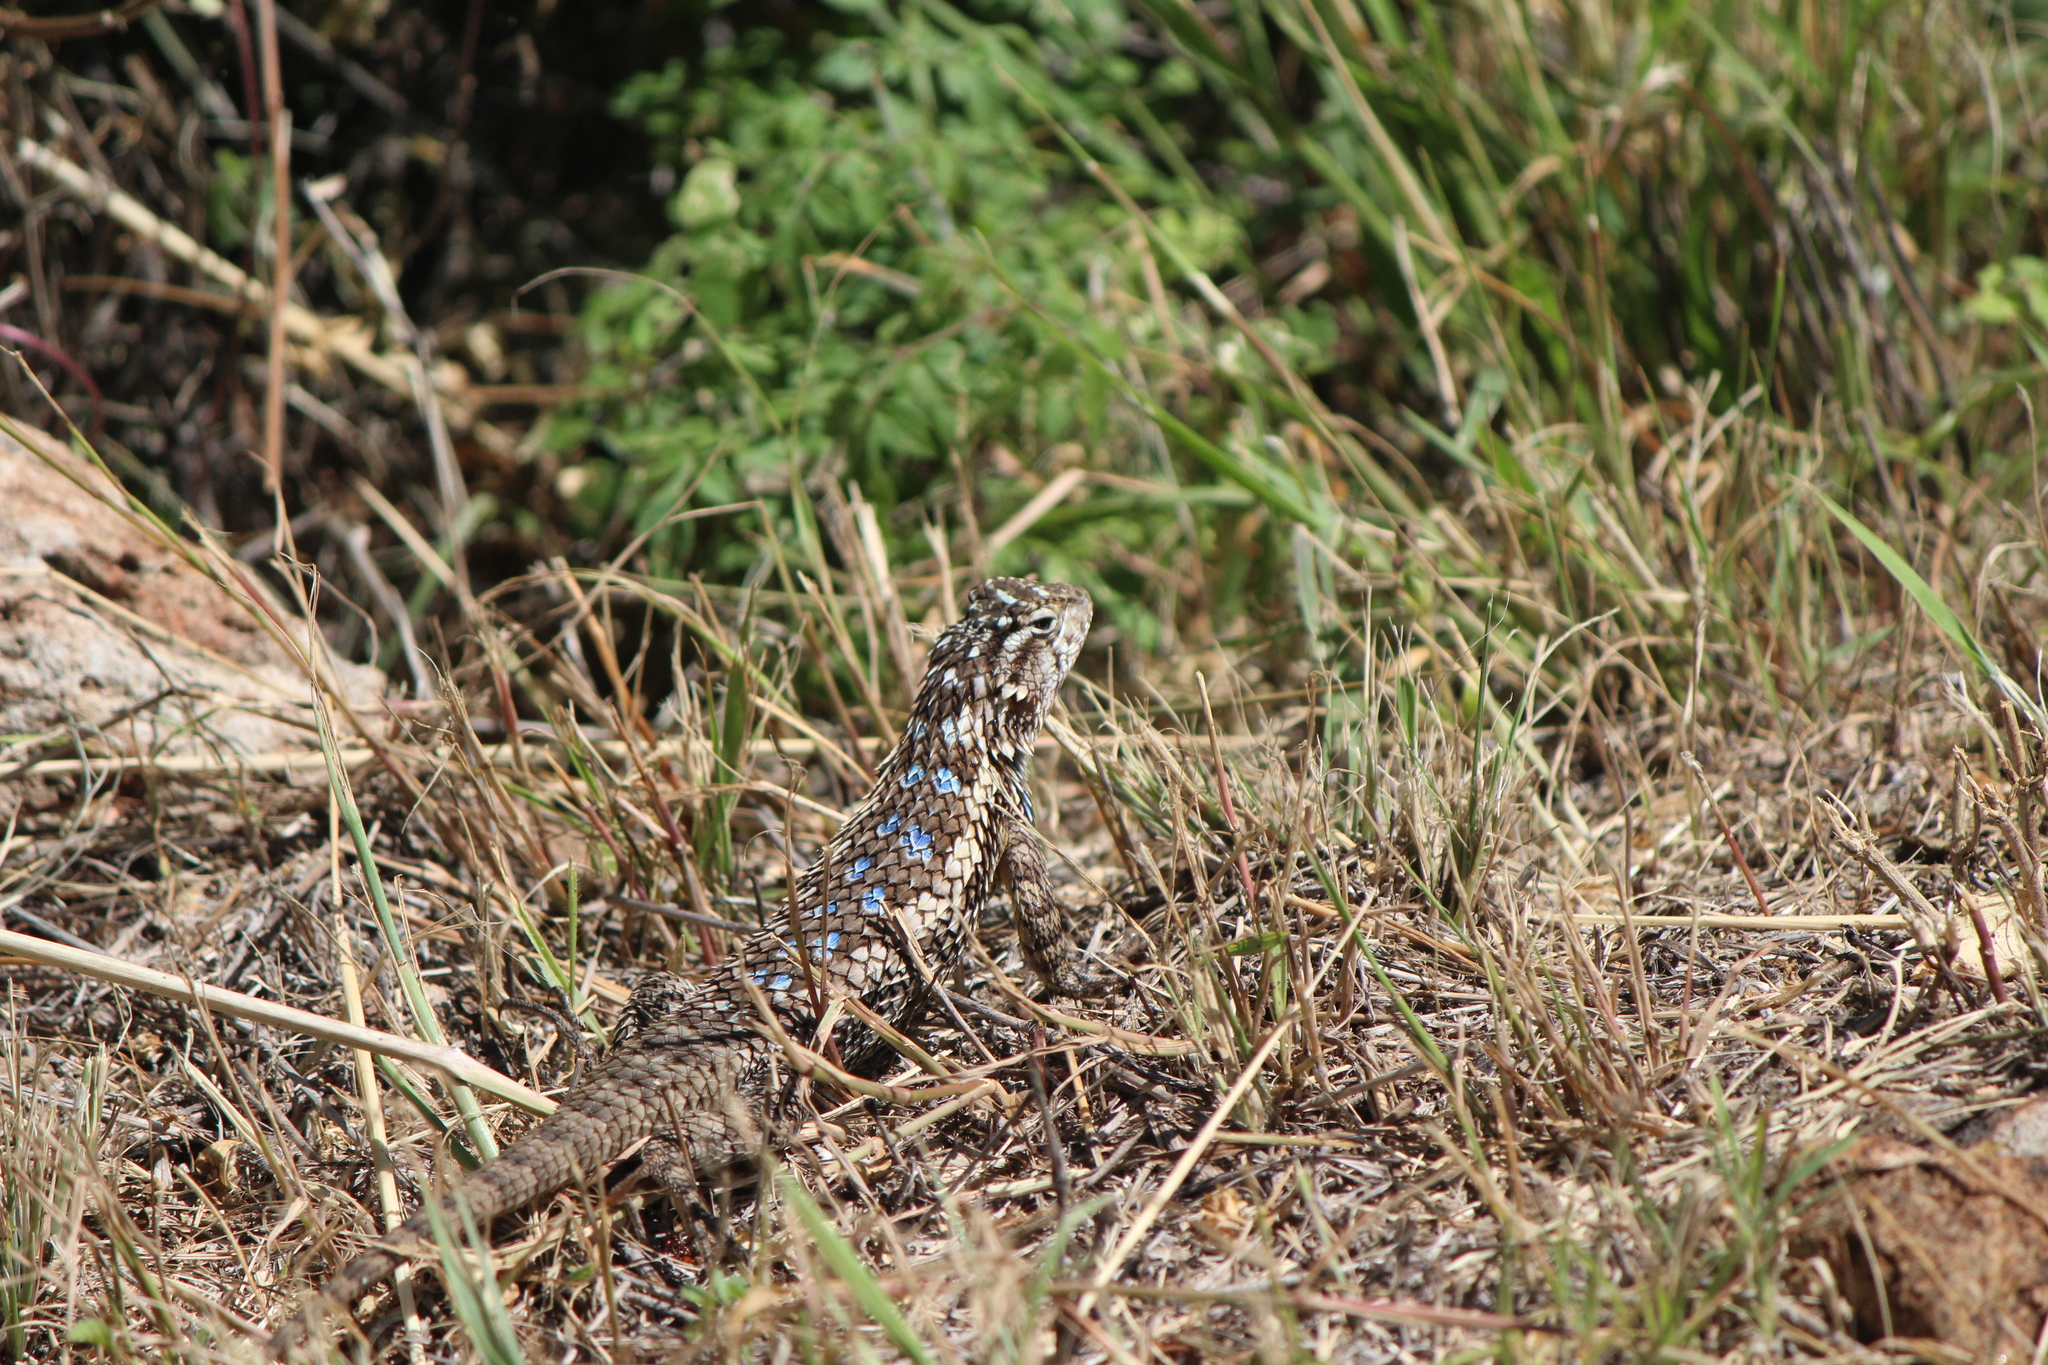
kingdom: Animalia
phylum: Chordata
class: Squamata
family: Phrynosomatidae
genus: Sceloporus
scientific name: Sceloporus spinosus
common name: Blue-spotted spiny lizard [caeruleopunctatus]
